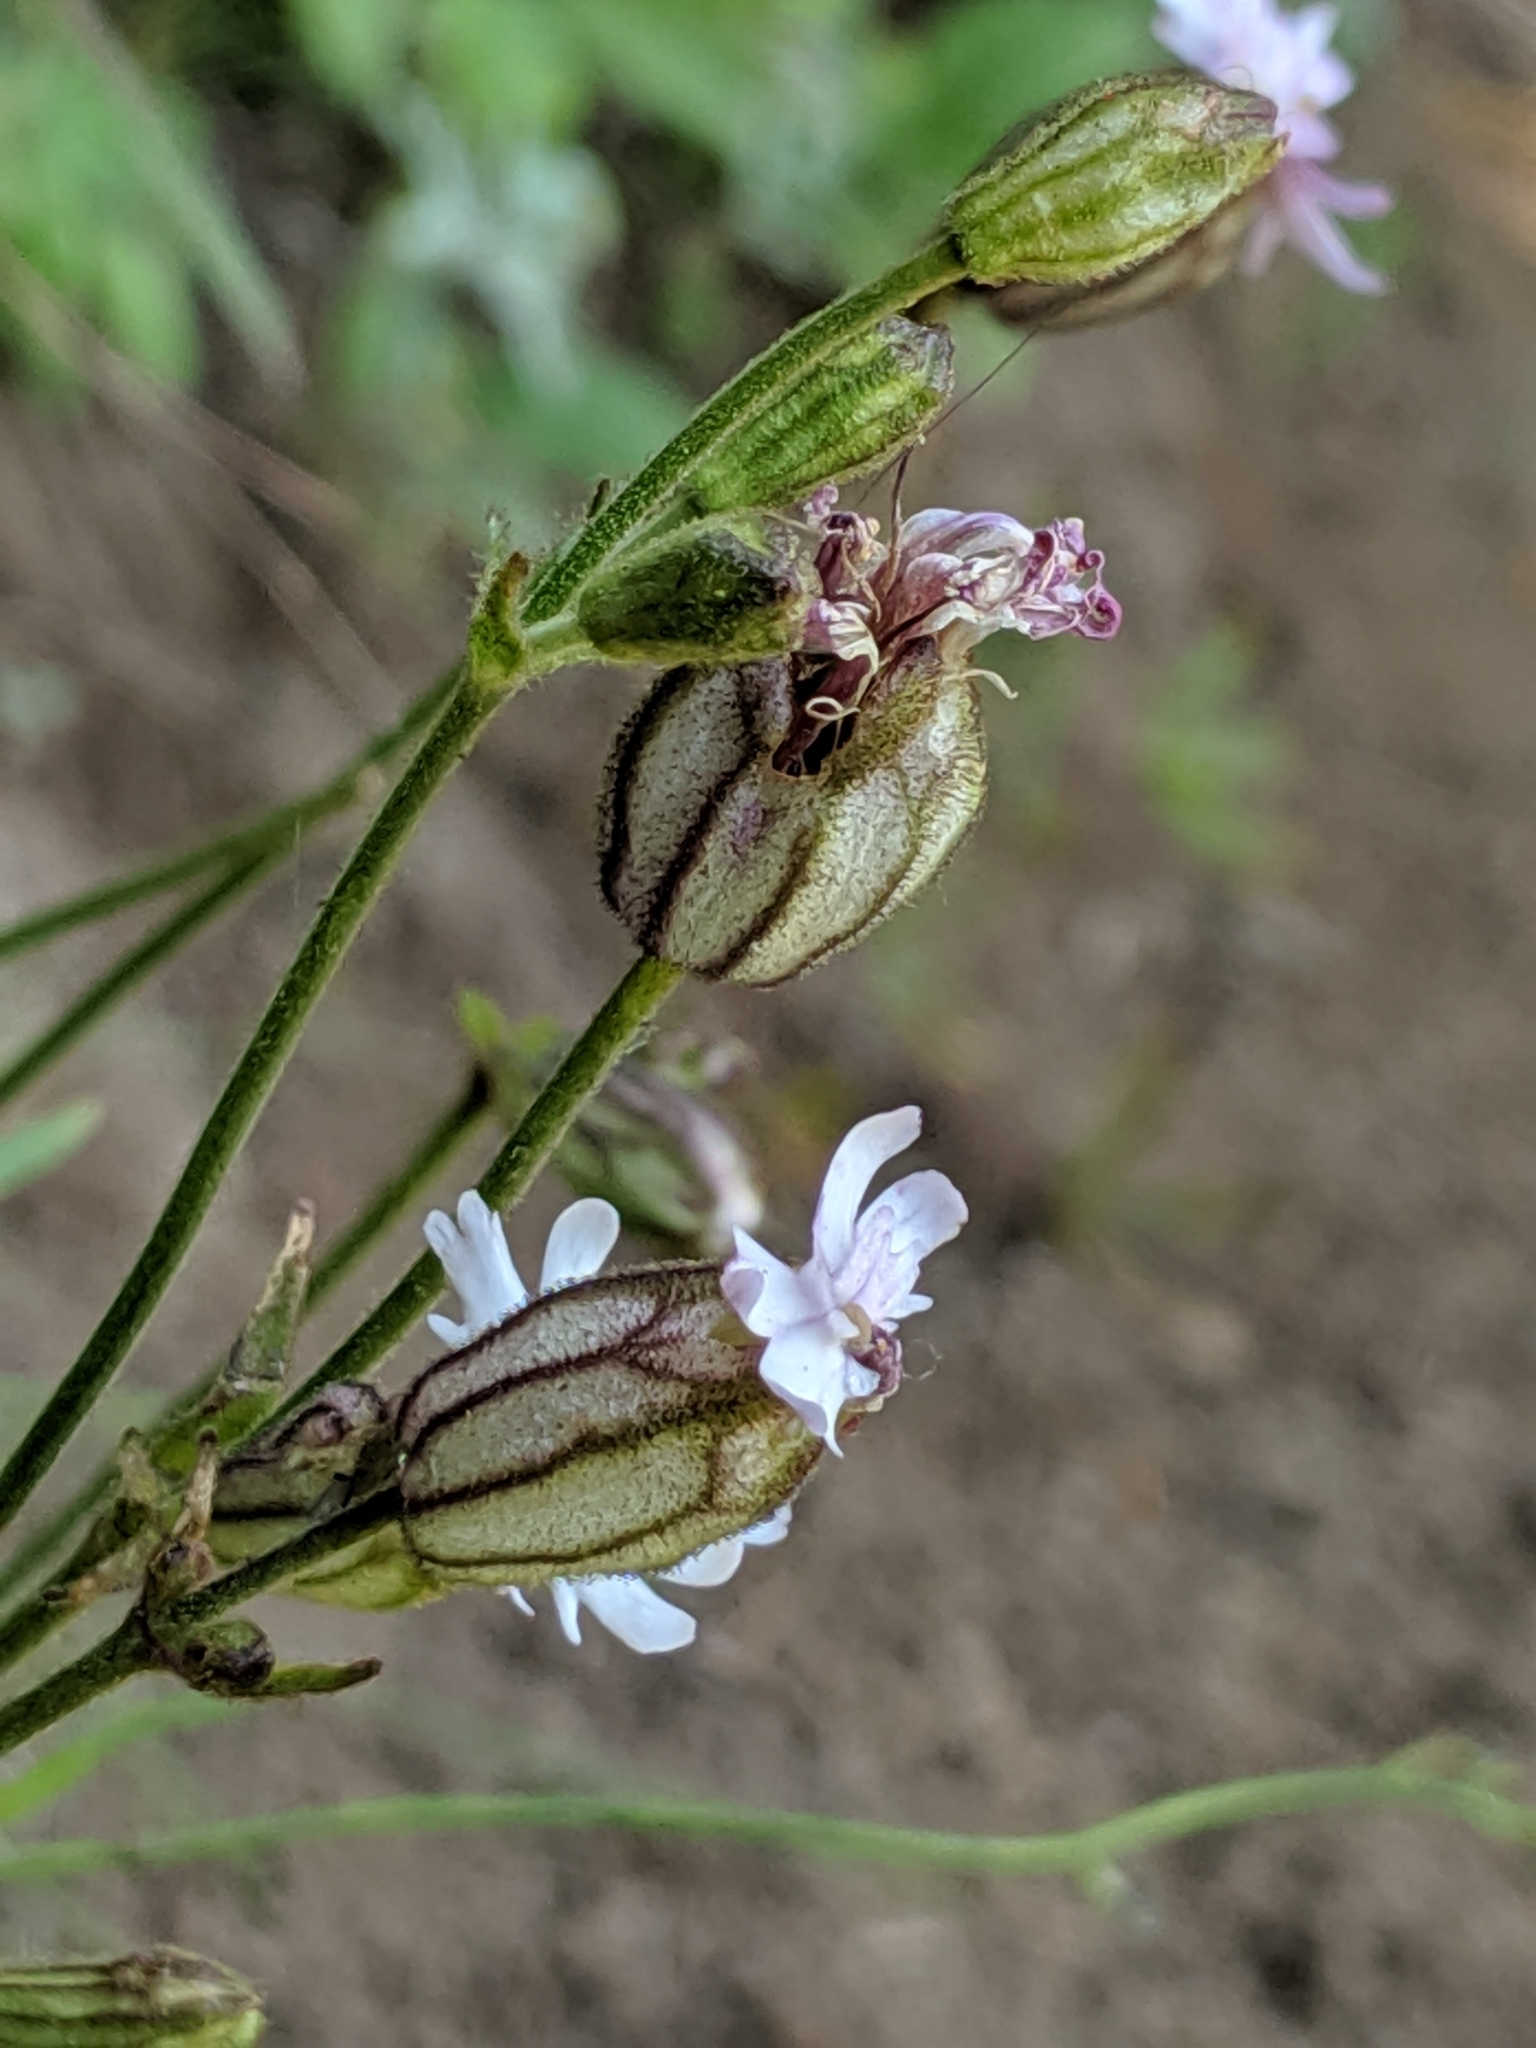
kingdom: Plantae
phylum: Tracheophyta
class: Magnoliopsida
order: Caryophyllales
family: Caryophyllaceae
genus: Silene
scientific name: Silene parryi
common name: Parry's campion
